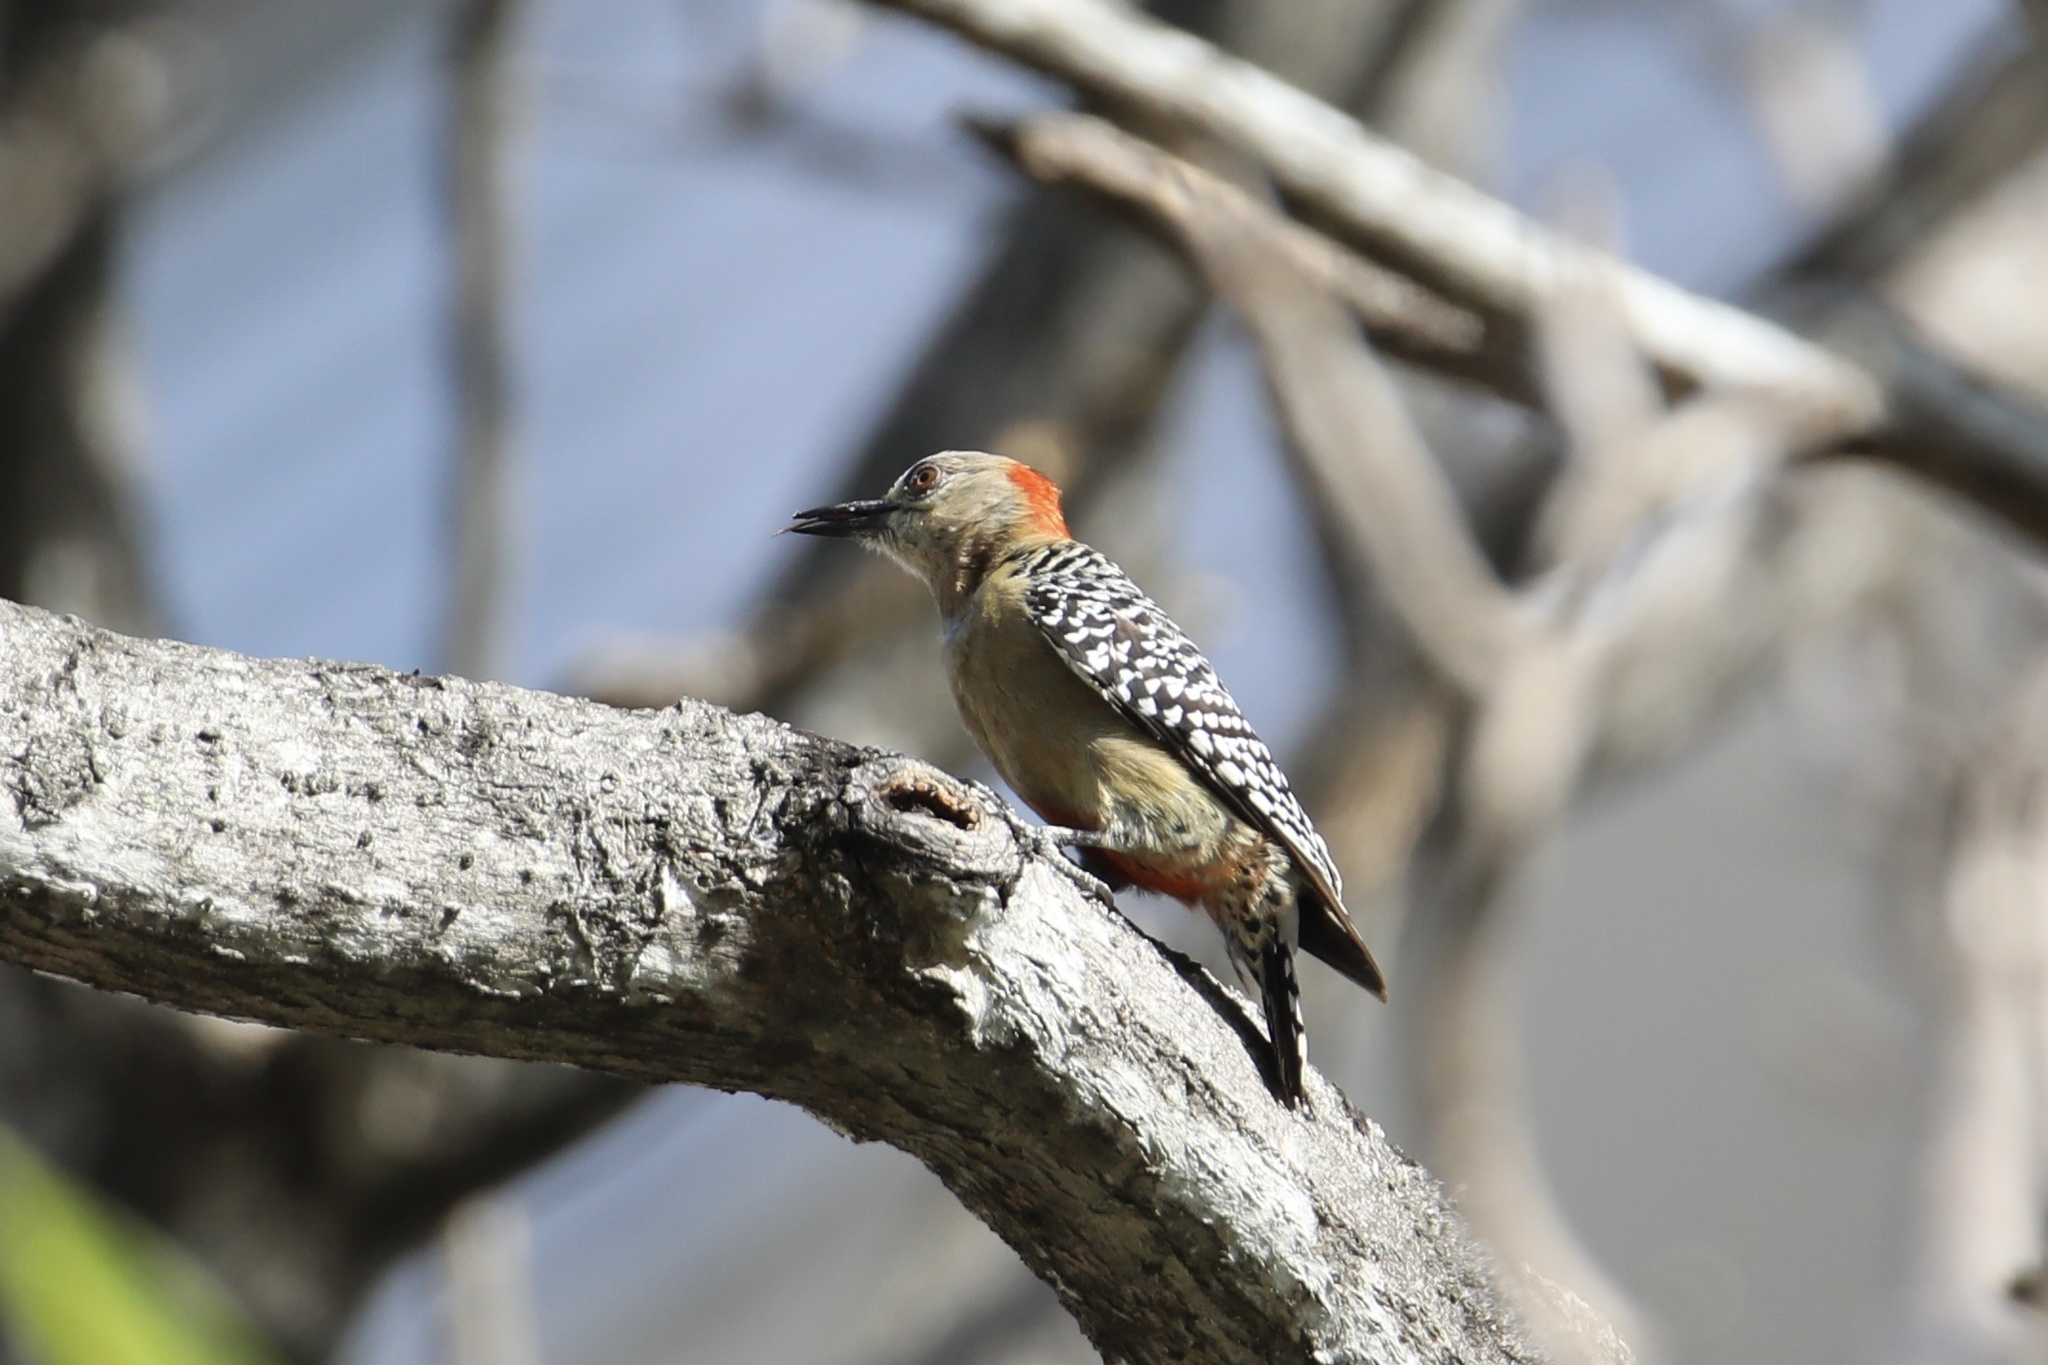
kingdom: Animalia
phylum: Chordata
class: Aves
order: Piciformes
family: Picidae
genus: Melanerpes
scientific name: Melanerpes rubricapillus
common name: Red-crowned woodpecker
